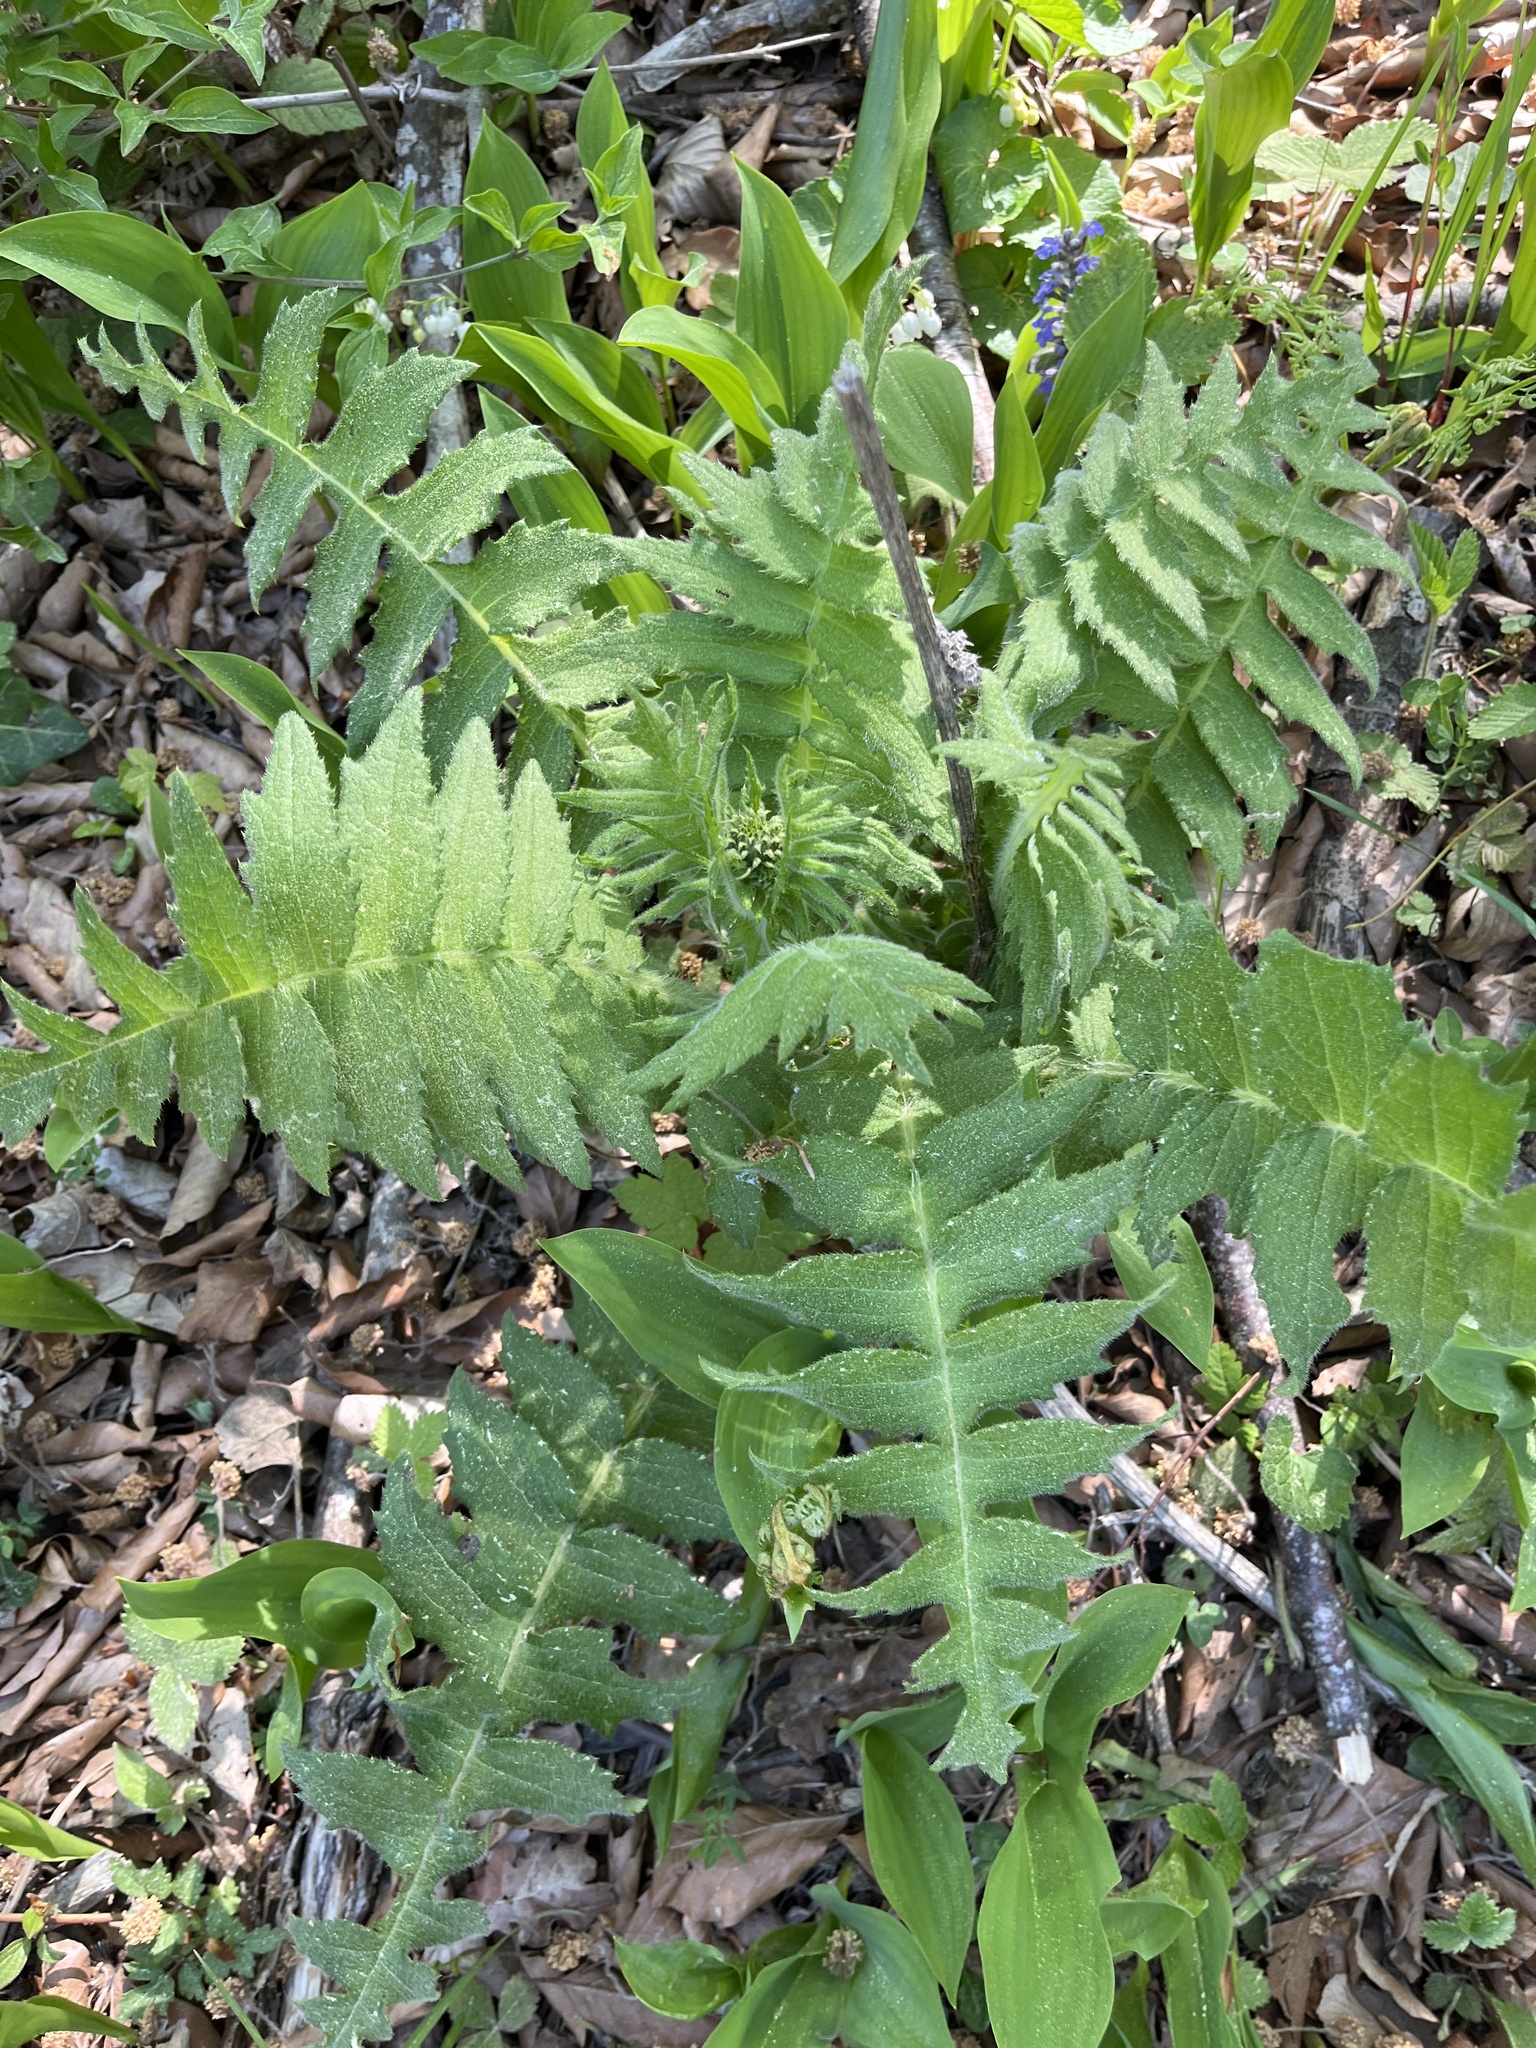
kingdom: Plantae
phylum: Tracheophyta
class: Magnoliopsida
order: Asterales
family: Asteraceae
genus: Cirsium
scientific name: Cirsium erisithales
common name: Yellow thistle
